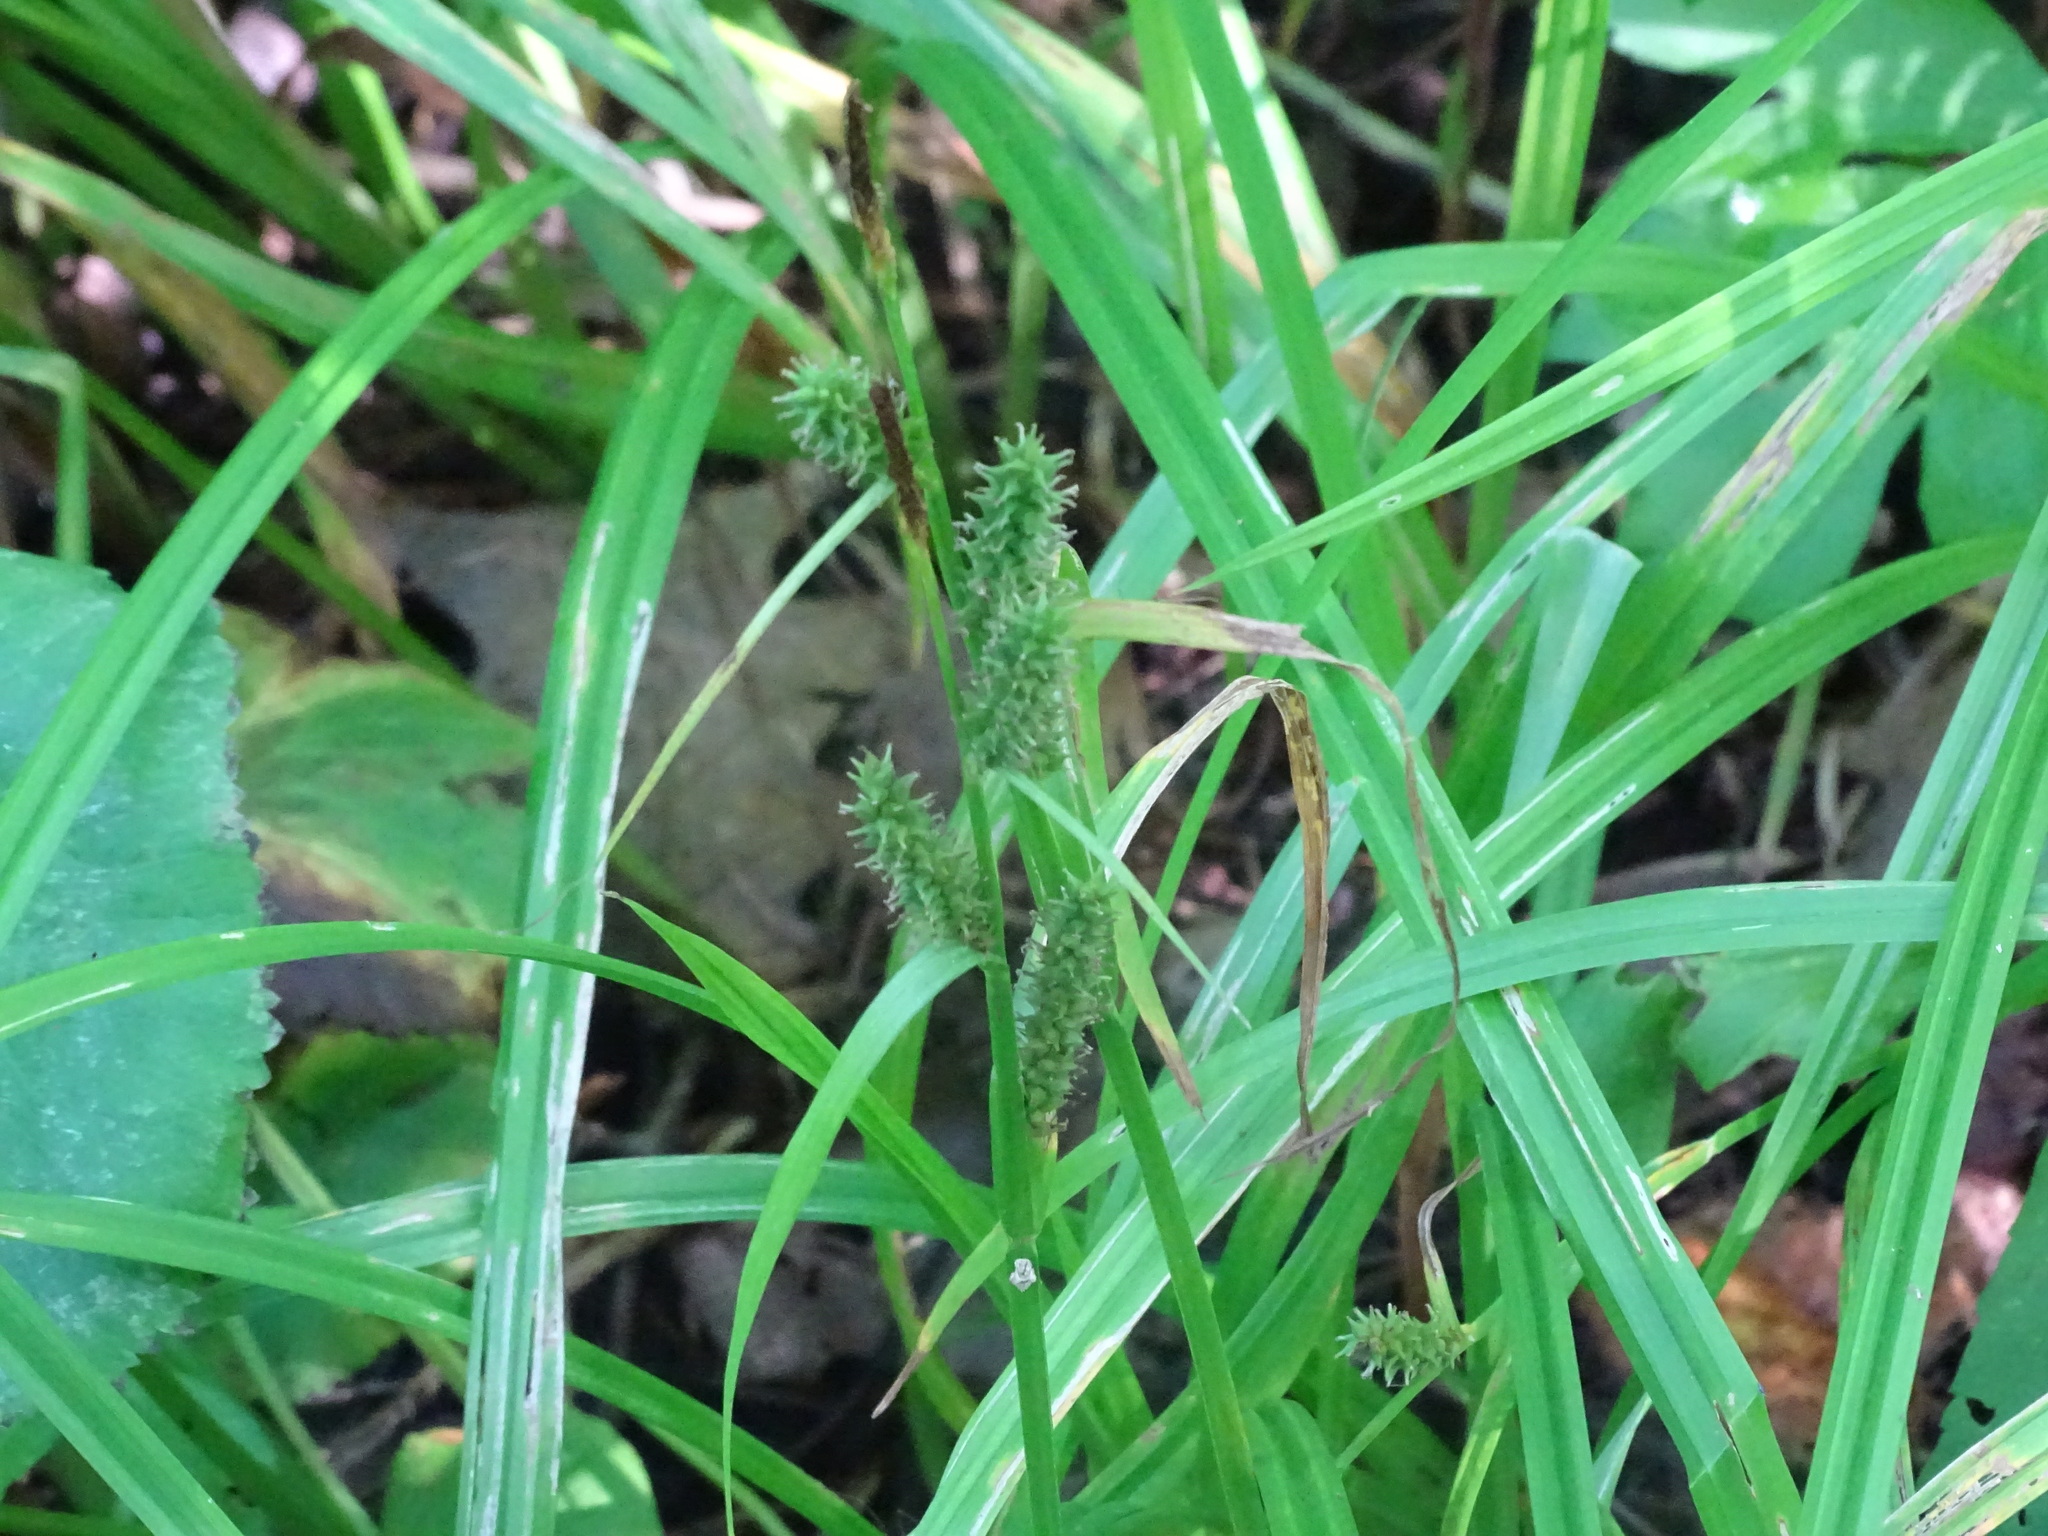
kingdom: Plantae
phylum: Tracheophyta
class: Liliopsida
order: Poales
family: Cyperaceae
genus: Carex
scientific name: Carex scabrata
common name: Eastern rough sedge
